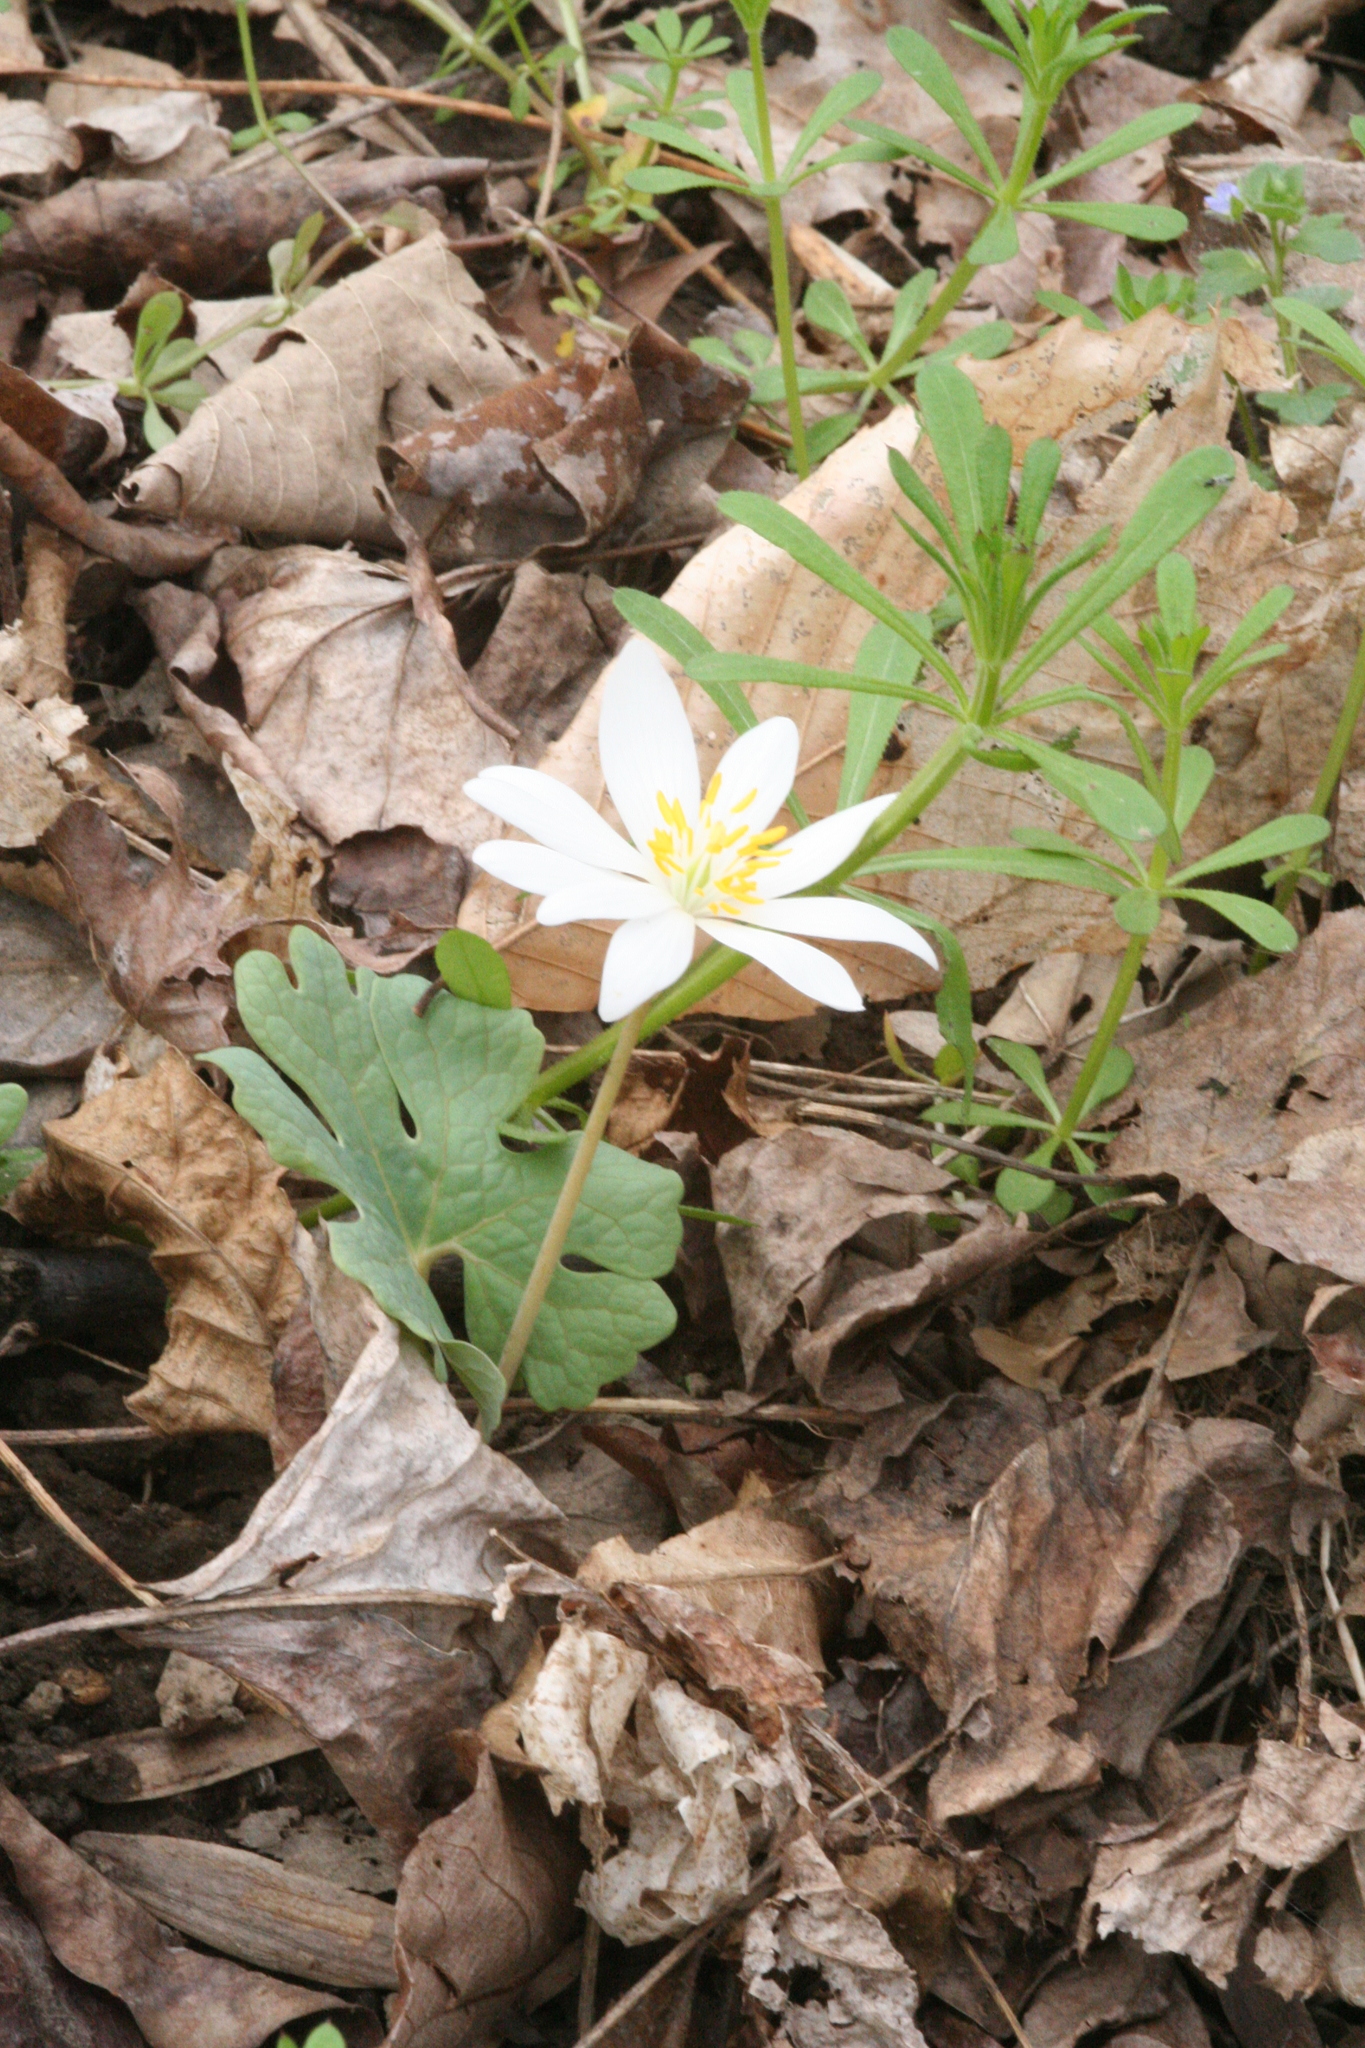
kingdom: Plantae
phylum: Tracheophyta
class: Magnoliopsida
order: Ranunculales
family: Papaveraceae
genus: Sanguinaria
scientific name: Sanguinaria canadensis
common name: Bloodroot
